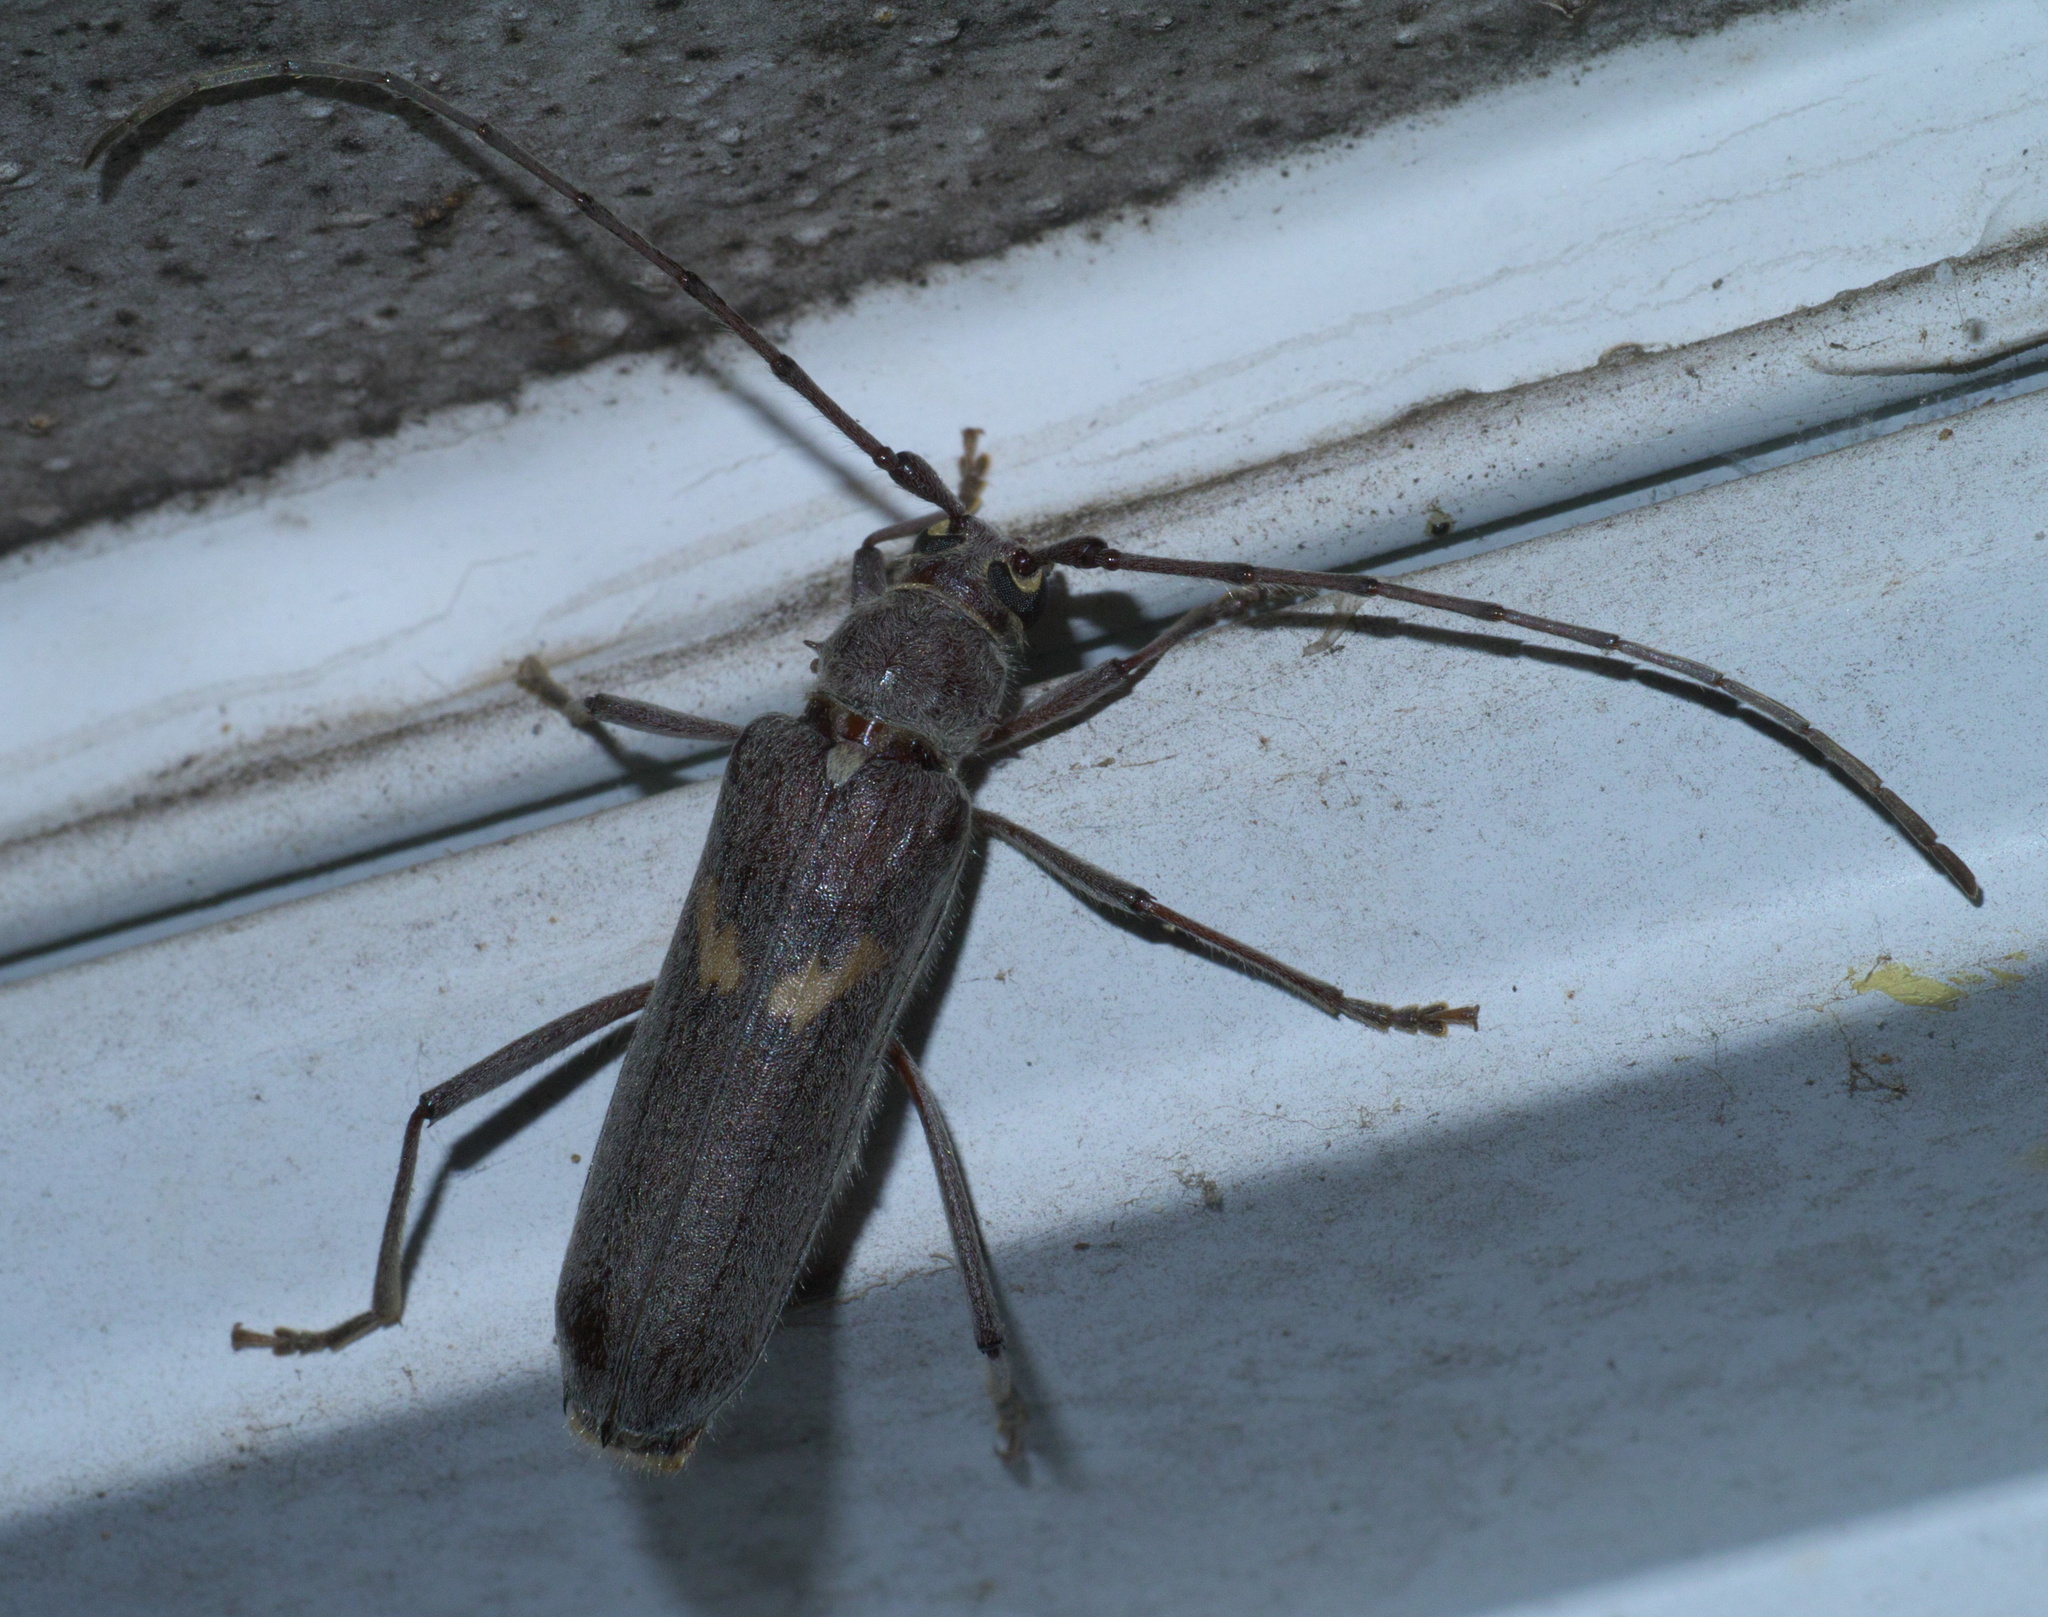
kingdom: Animalia
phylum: Arthropoda
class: Insecta
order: Coleoptera
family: Cerambycidae
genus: Knulliana
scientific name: Knulliana cincta
